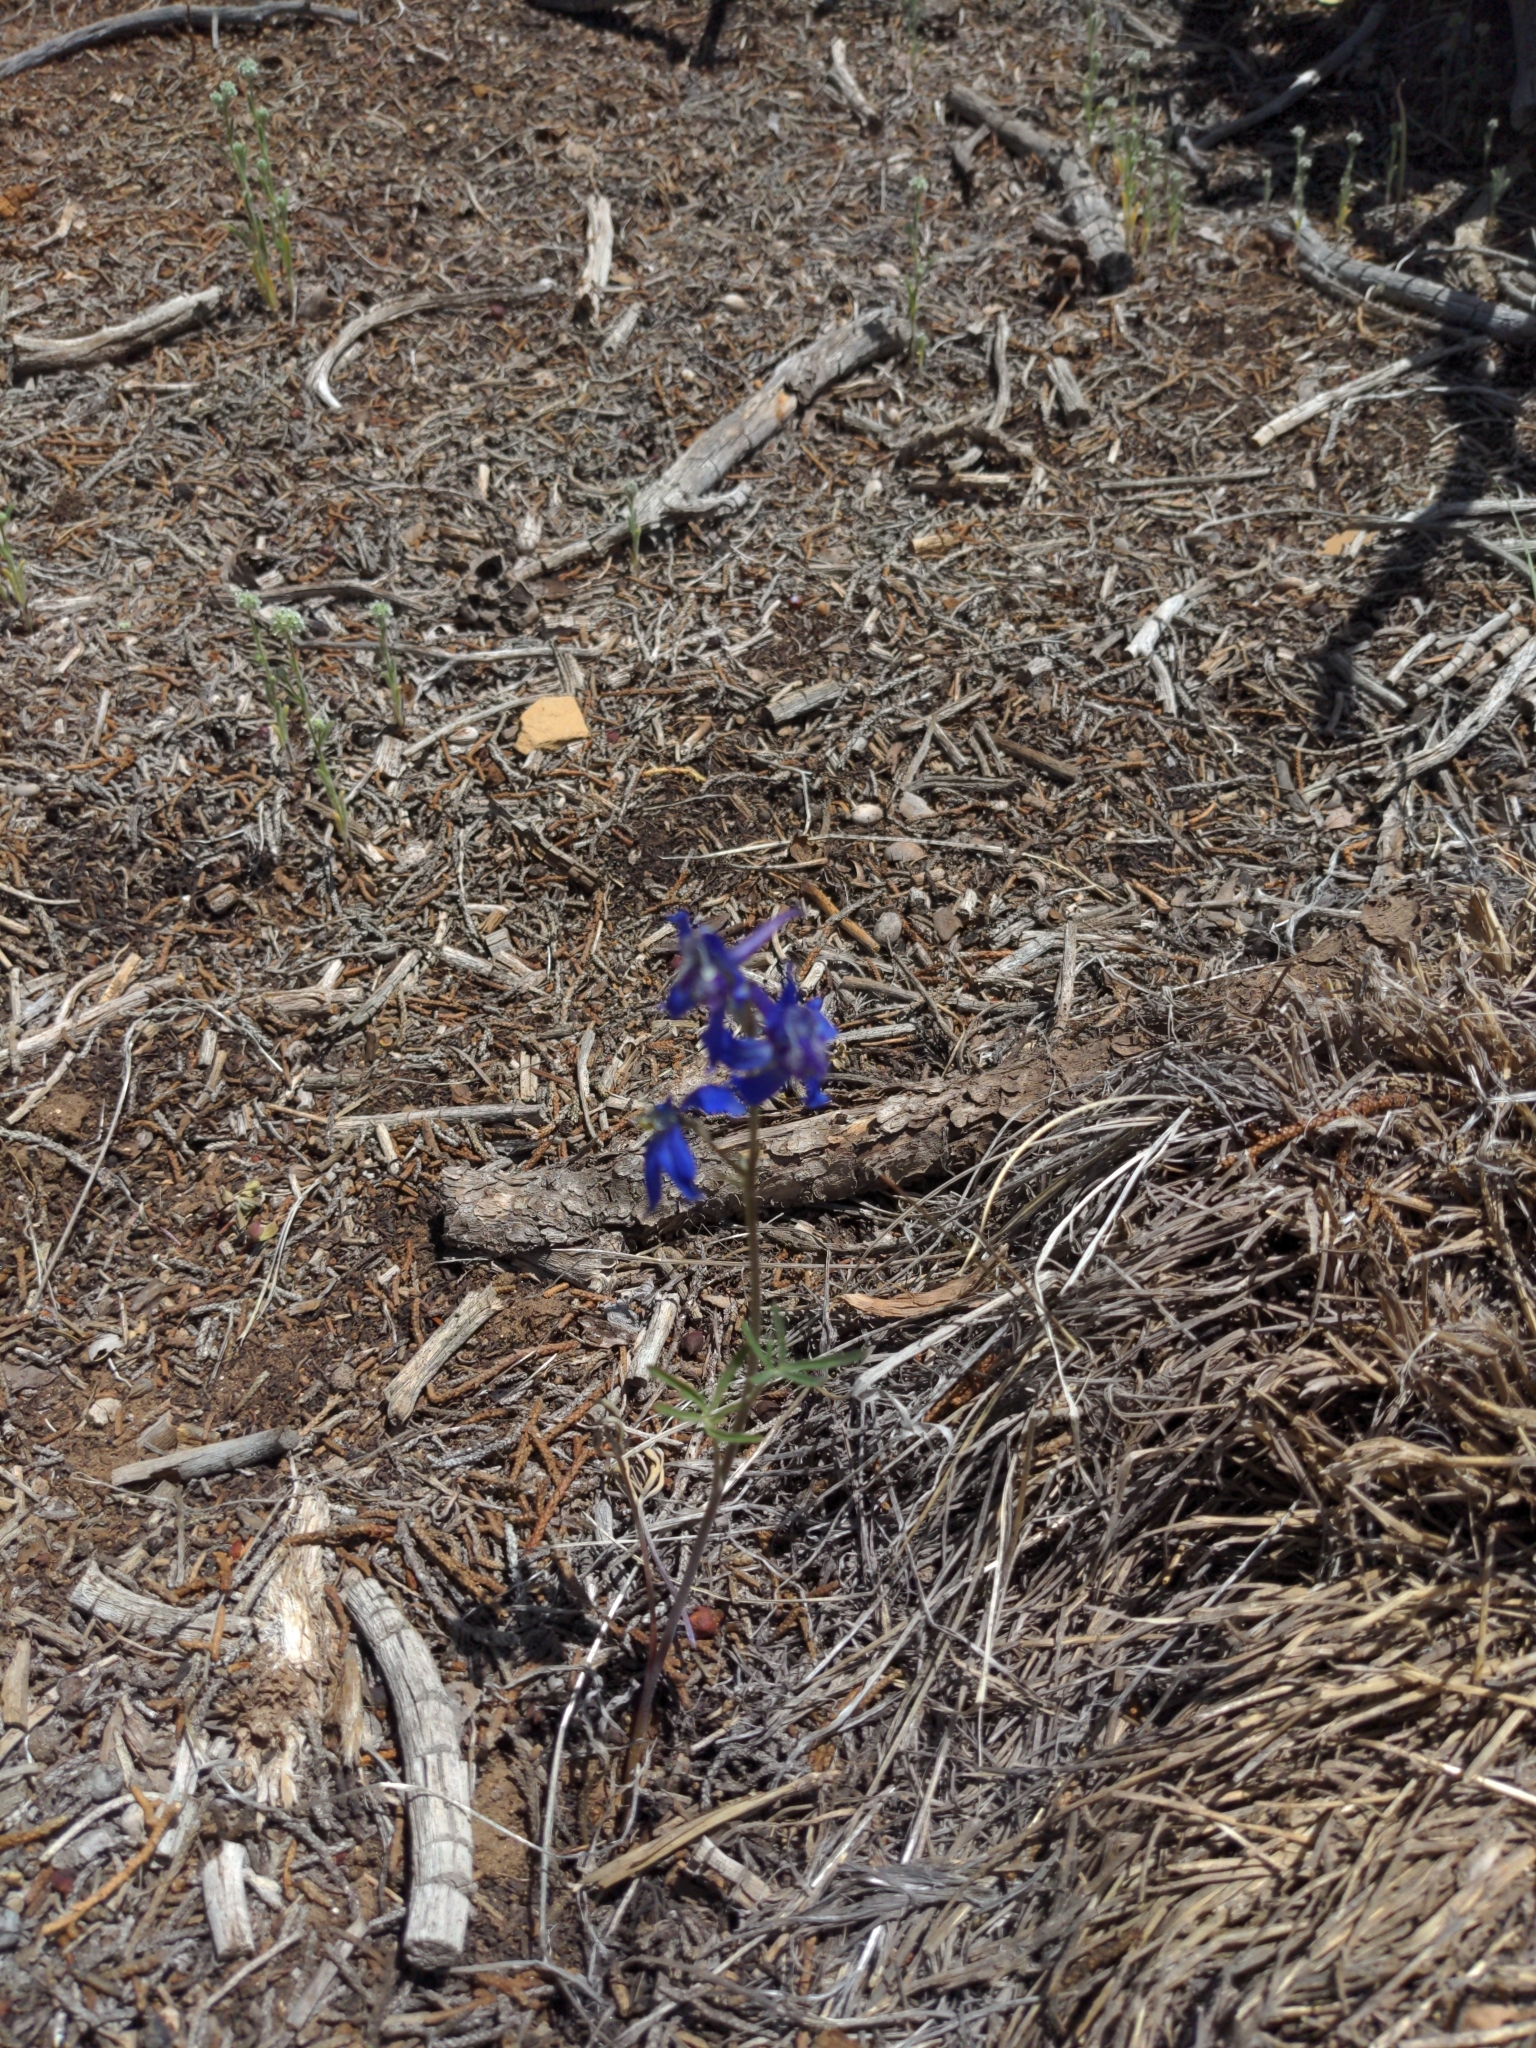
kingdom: Plantae
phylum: Tracheophyta
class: Magnoliopsida
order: Ranunculales
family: Ranunculaceae
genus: Delphinium
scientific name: Delphinium nuttallianum
